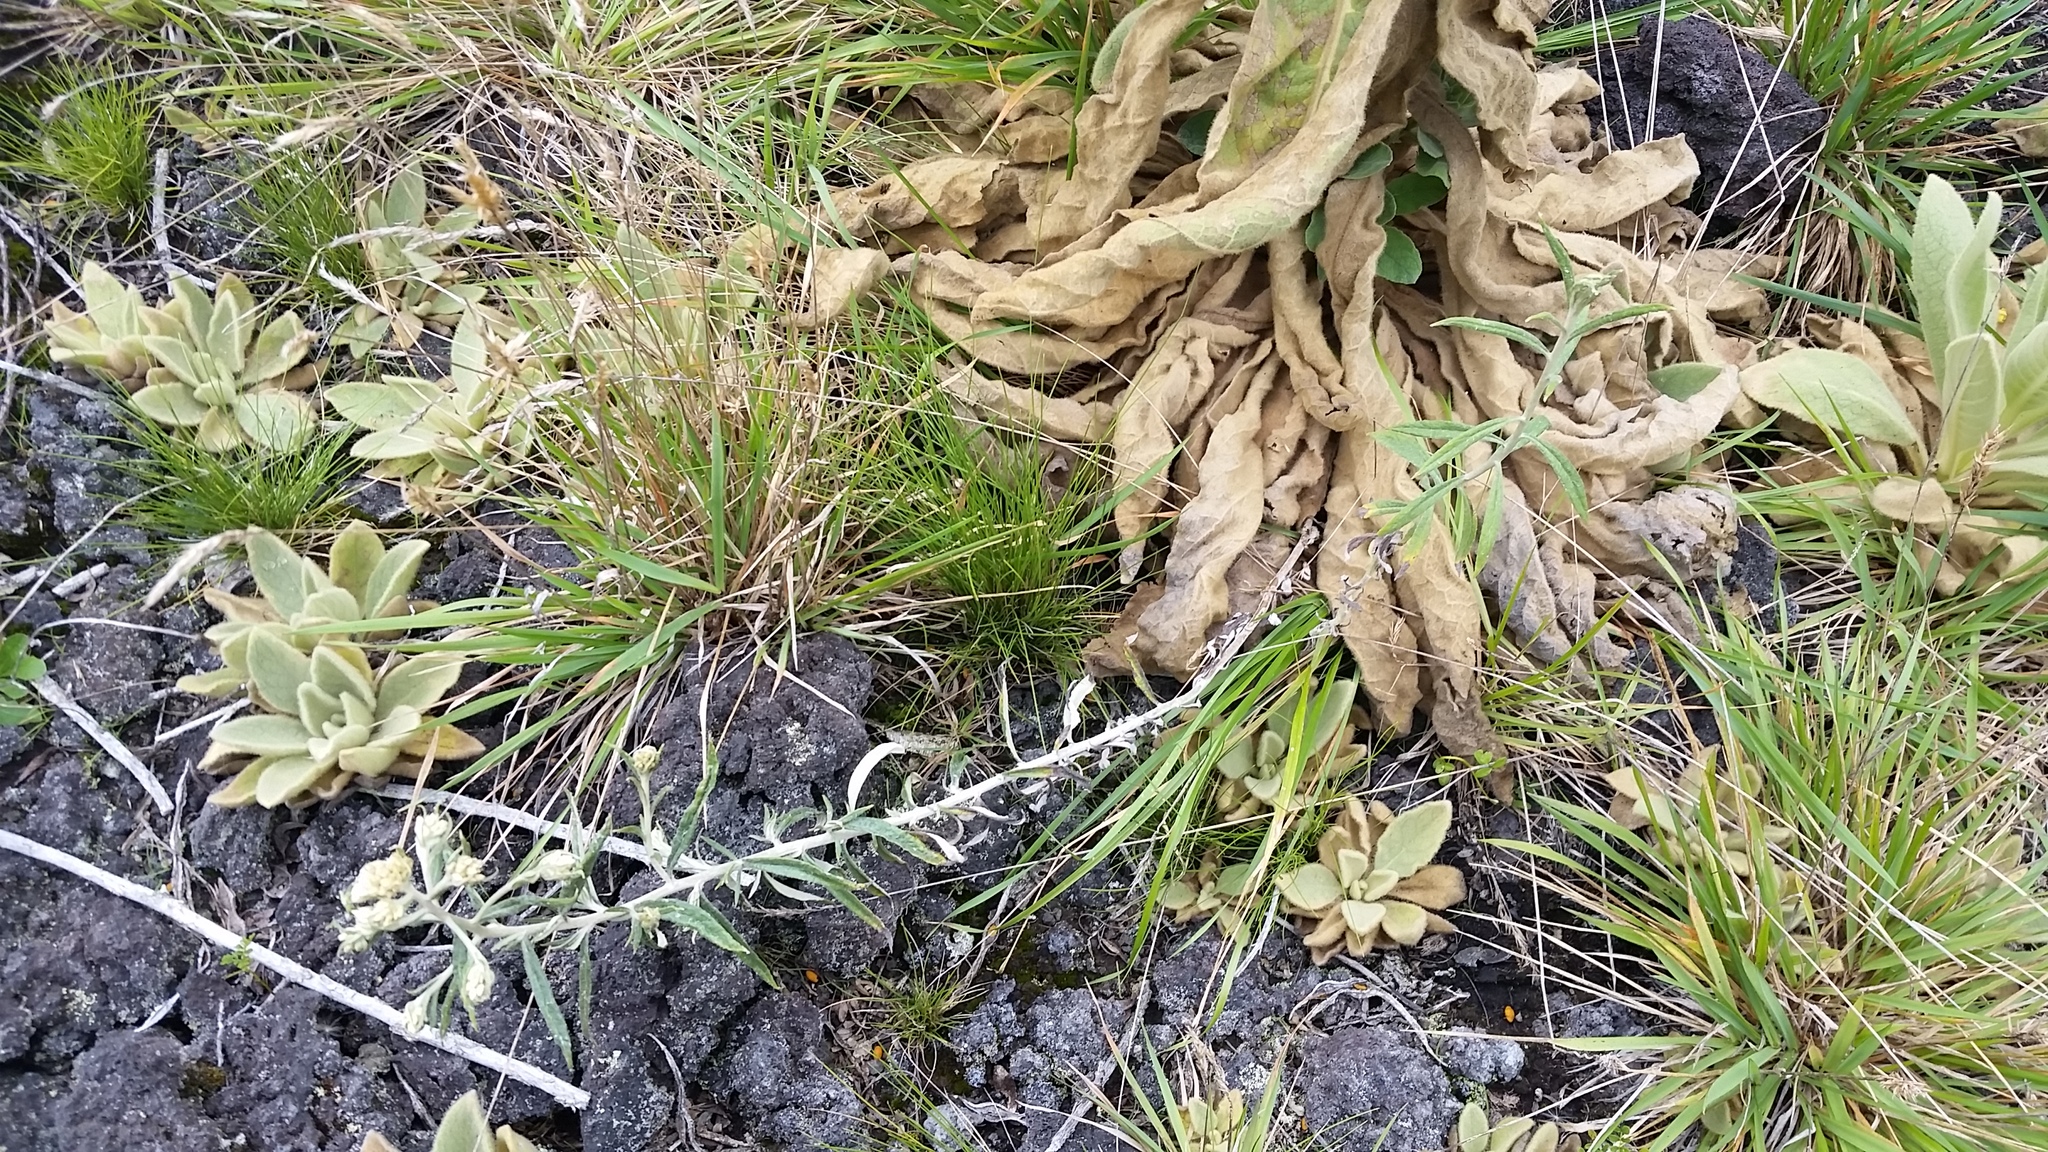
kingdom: Plantae
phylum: Tracheophyta
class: Magnoliopsida
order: Asterales
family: Asteraceae
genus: Pseudognaphalium
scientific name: Pseudognaphalium attenuatum
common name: Tapered cudweed
